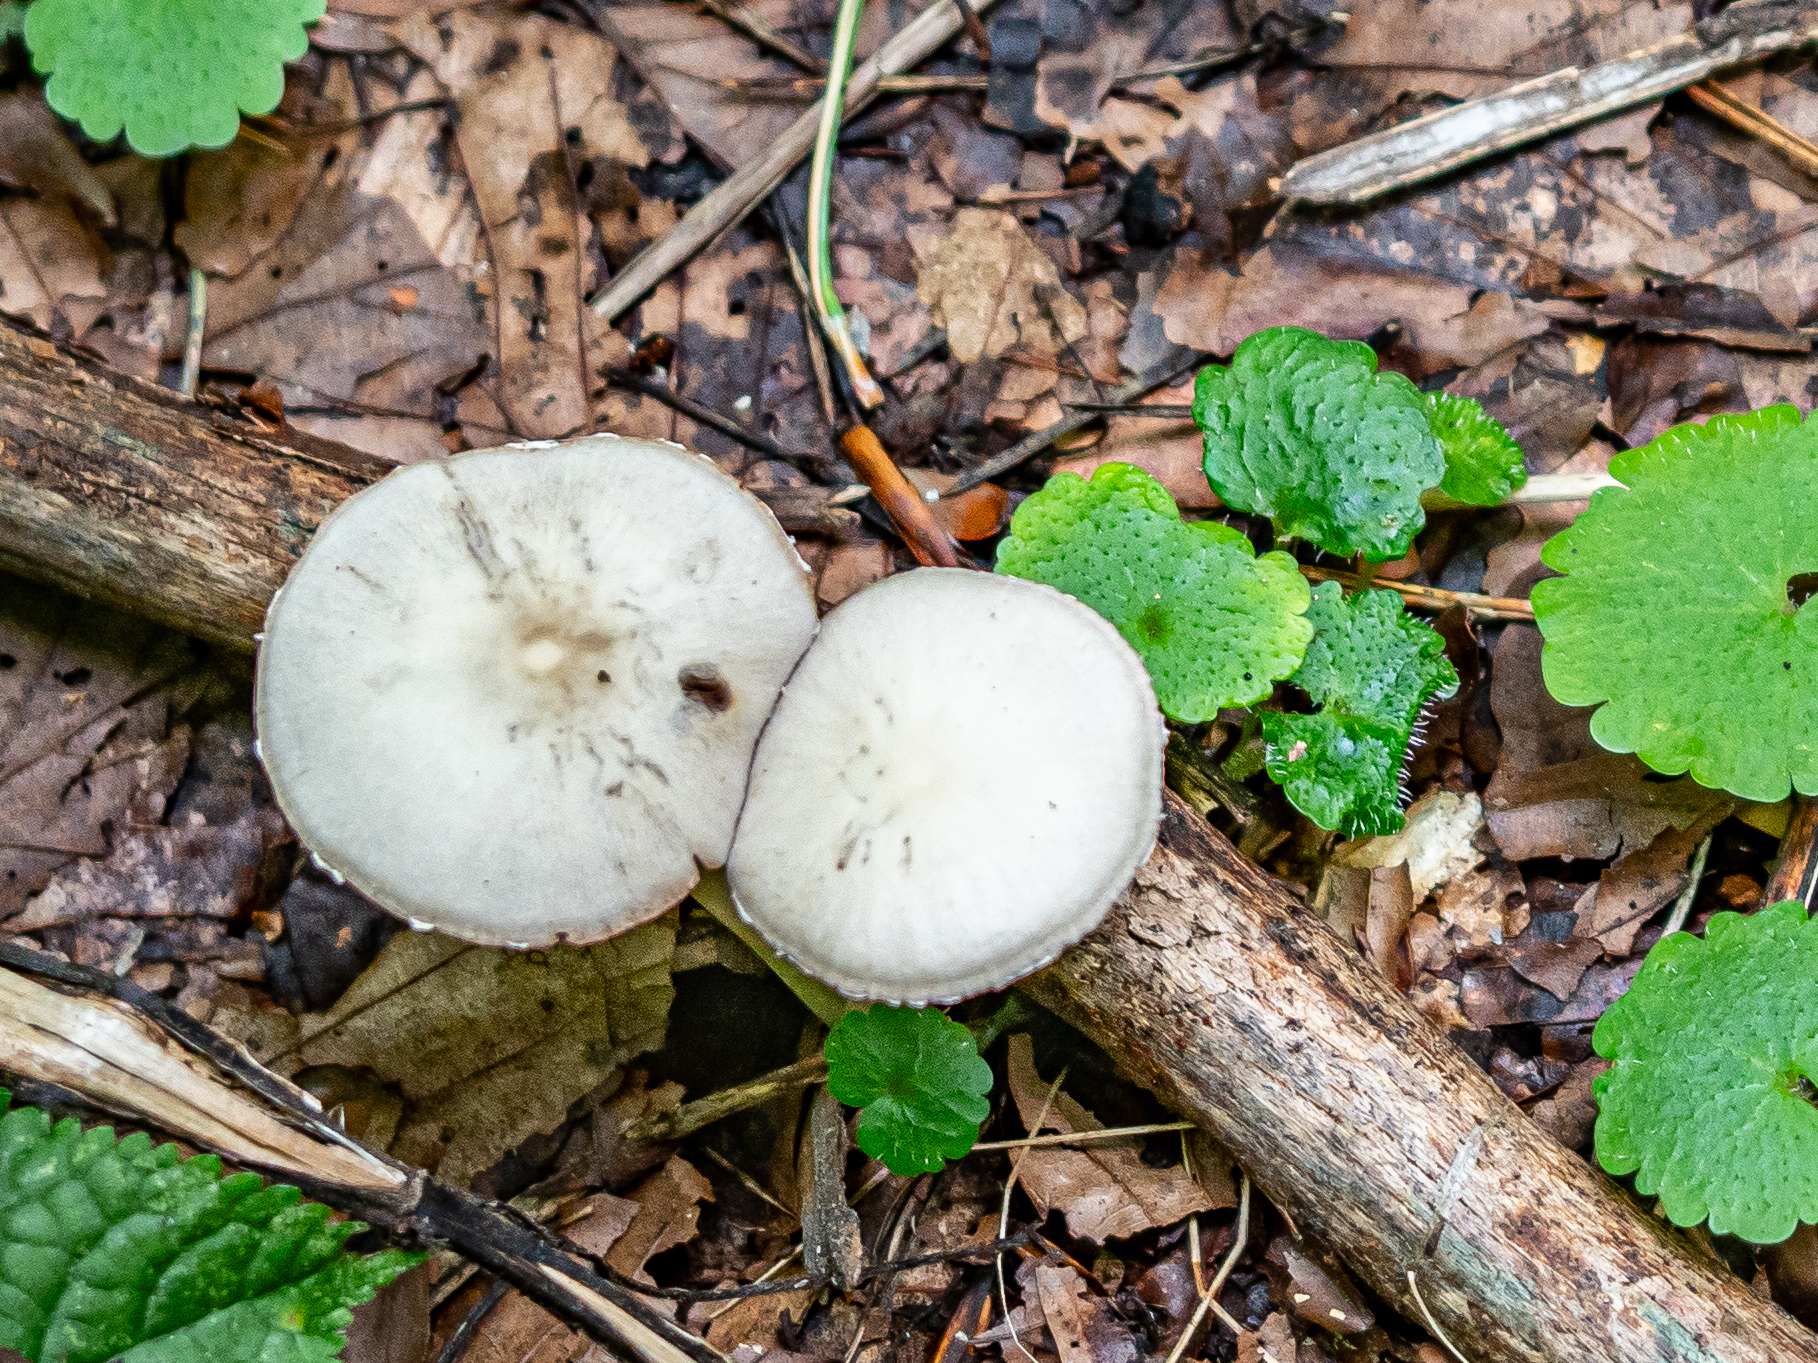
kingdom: Fungi
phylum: Basidiomycota
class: Agaricomycetes
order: Agaricales
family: Psathyrellaceae
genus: Candolleomyces
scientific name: Candolleomyces candolleanus
